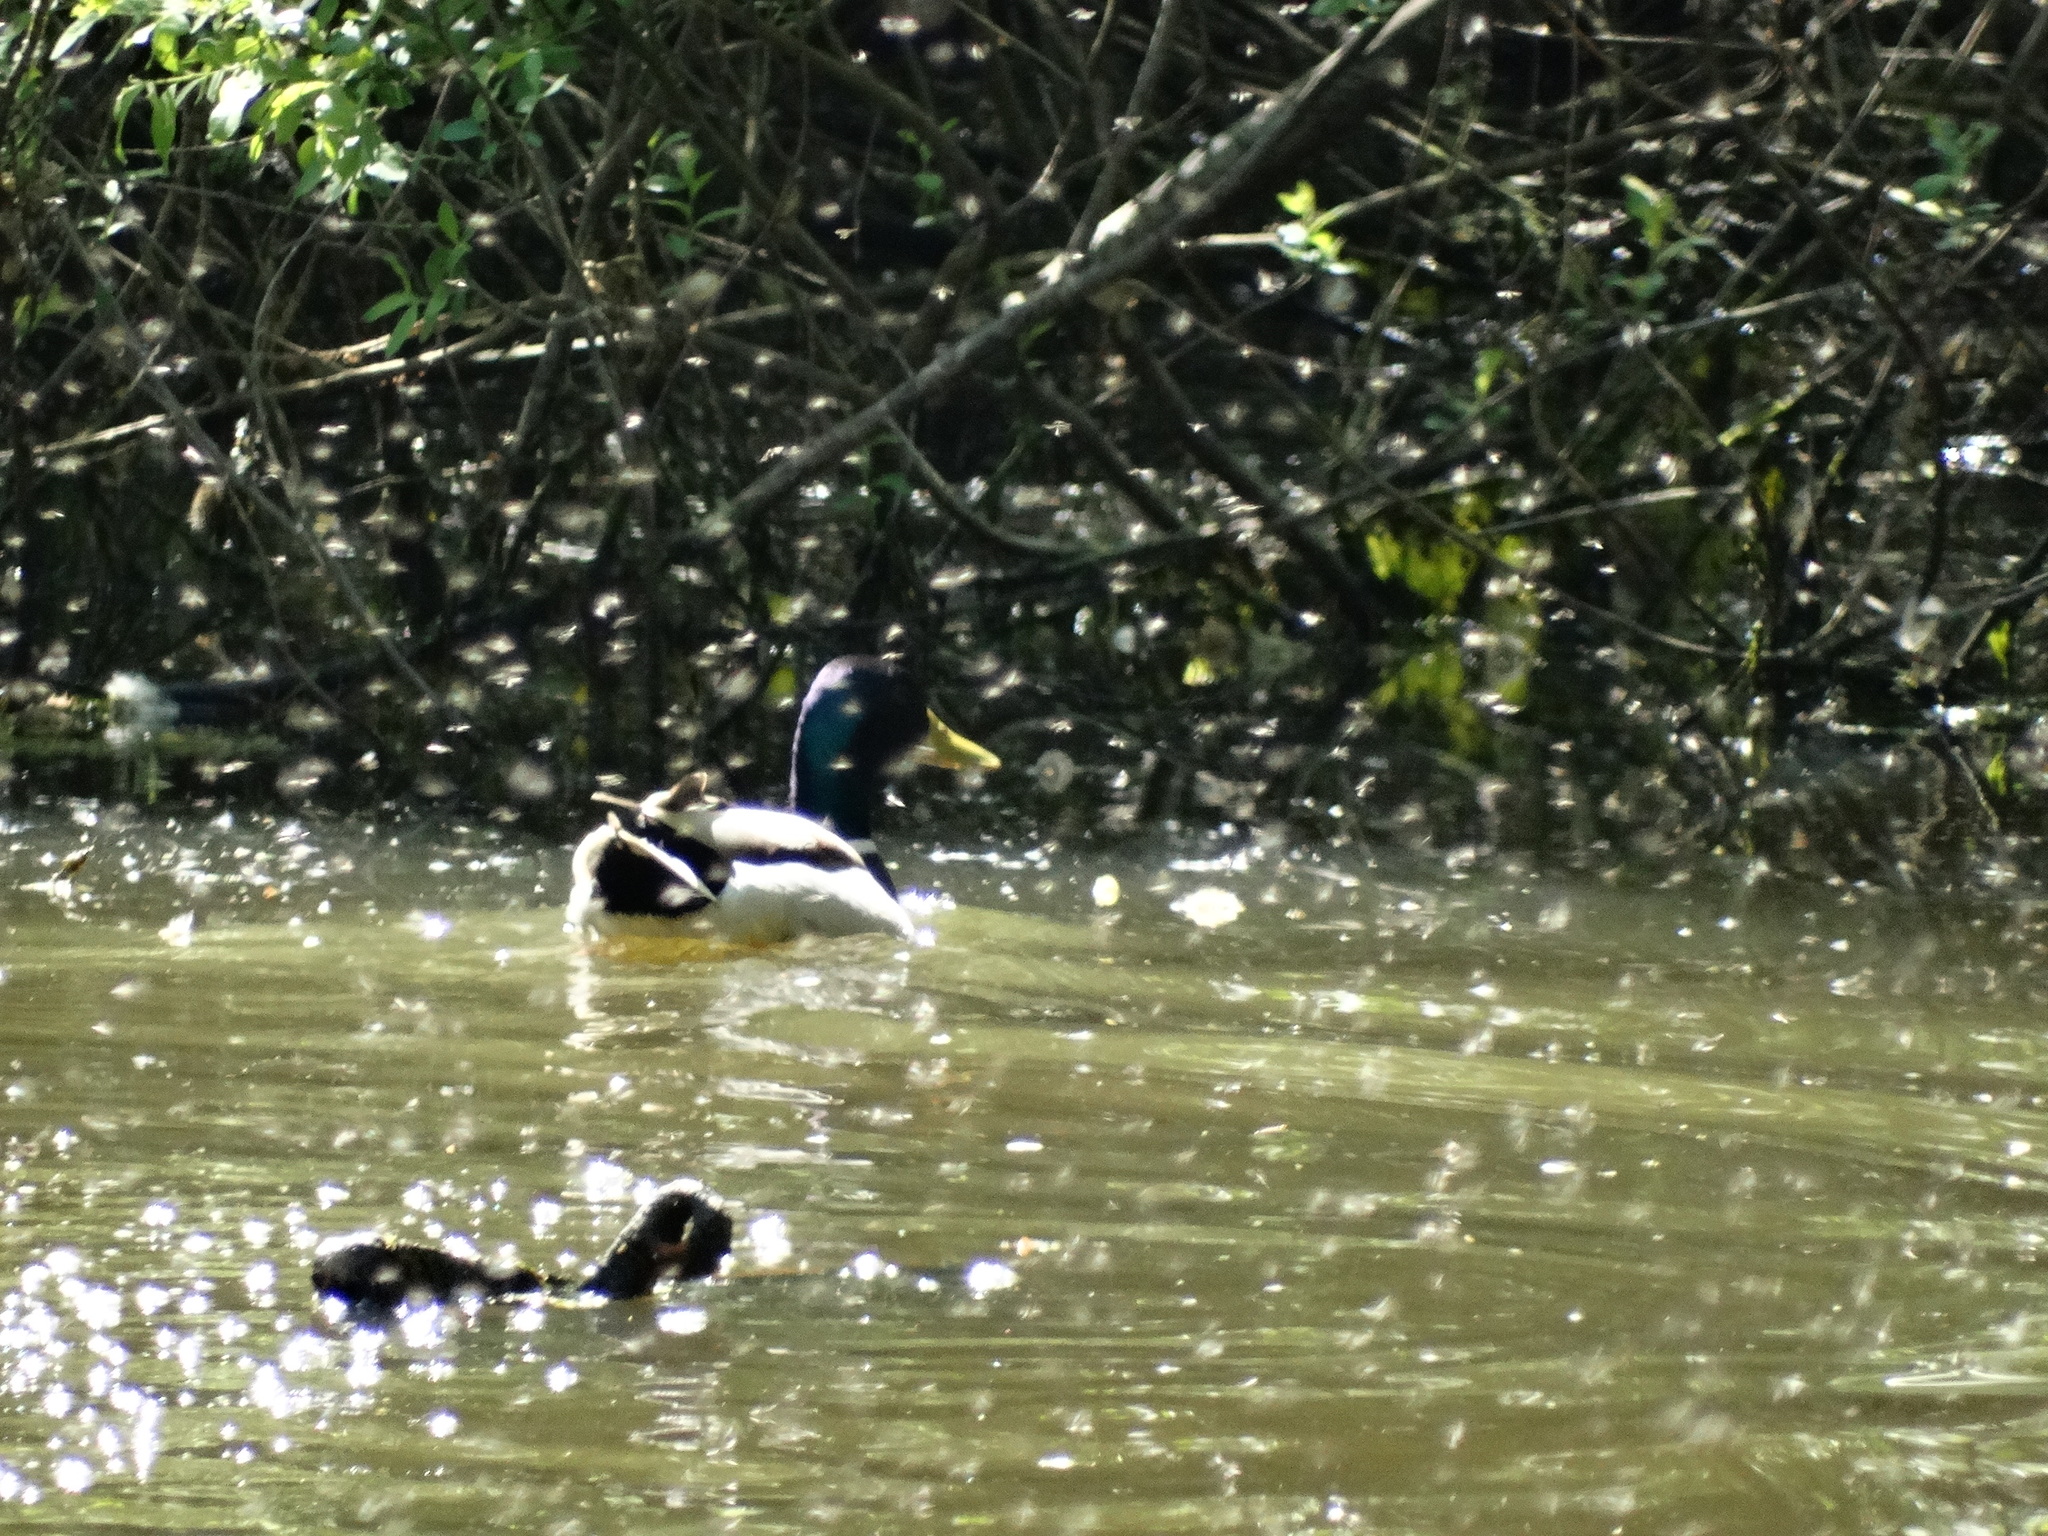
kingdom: Animalia
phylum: Chordata
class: Aves
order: Anseriformes
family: Anatidae
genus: Anas
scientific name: Anas platyrhynchos
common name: Mallard
